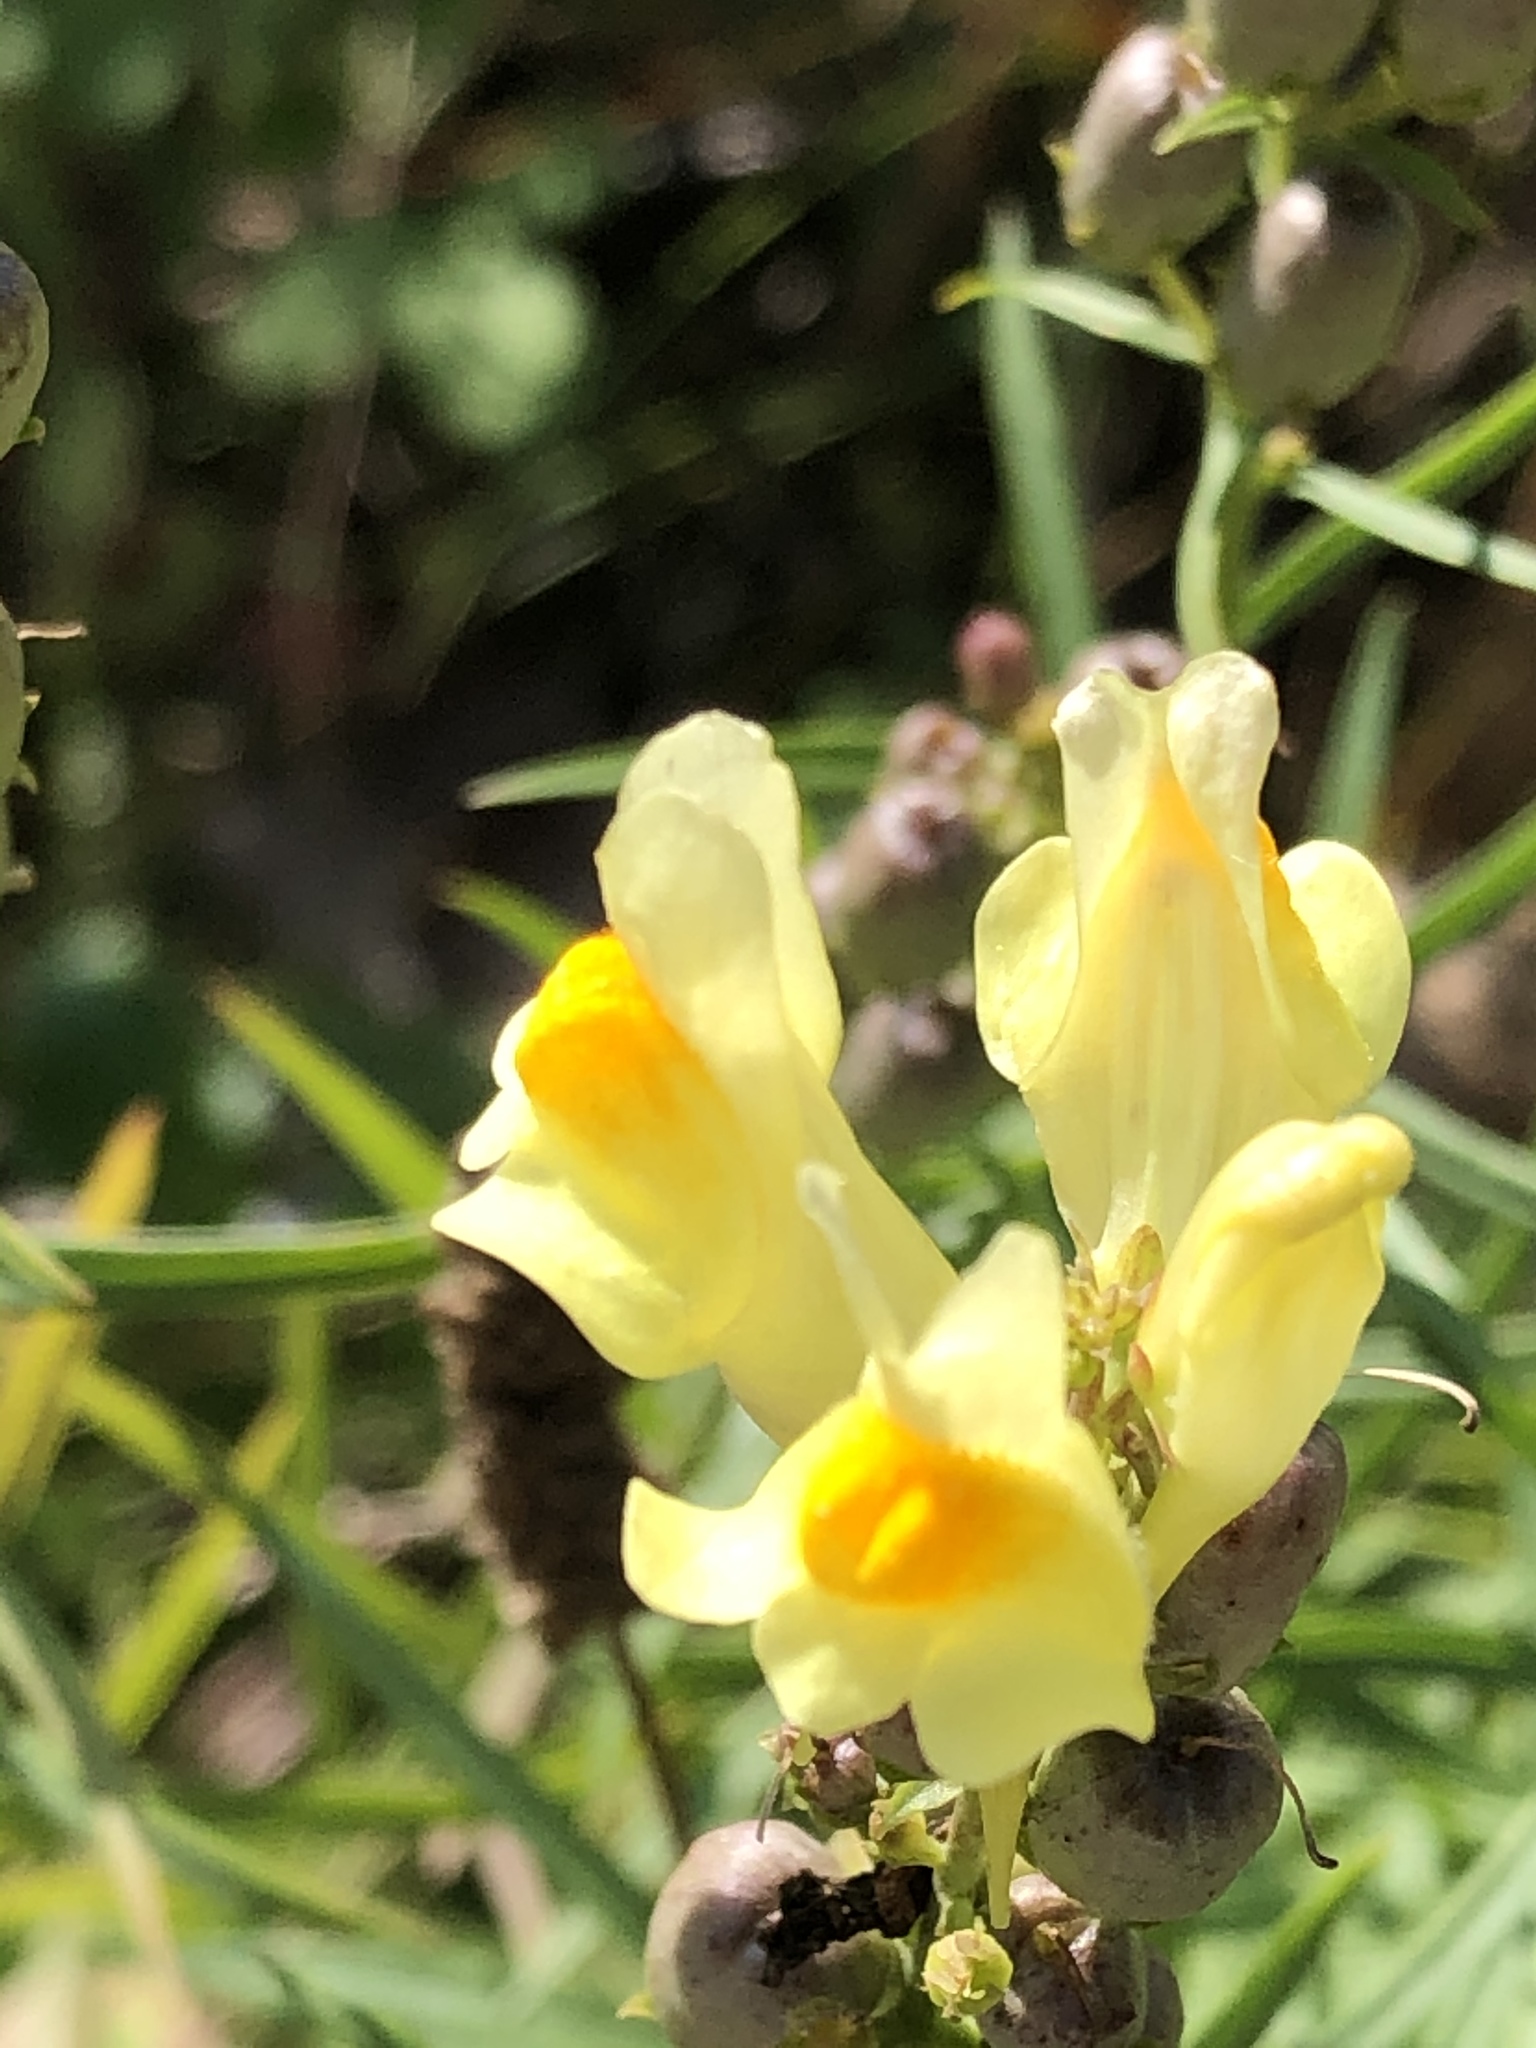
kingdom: Plantae
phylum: Tracheophyta
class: Magnoliopsida
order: Lamiales
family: Plantaginaceae
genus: Linaria
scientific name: Linaria vulgaris
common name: Butter and eggs
